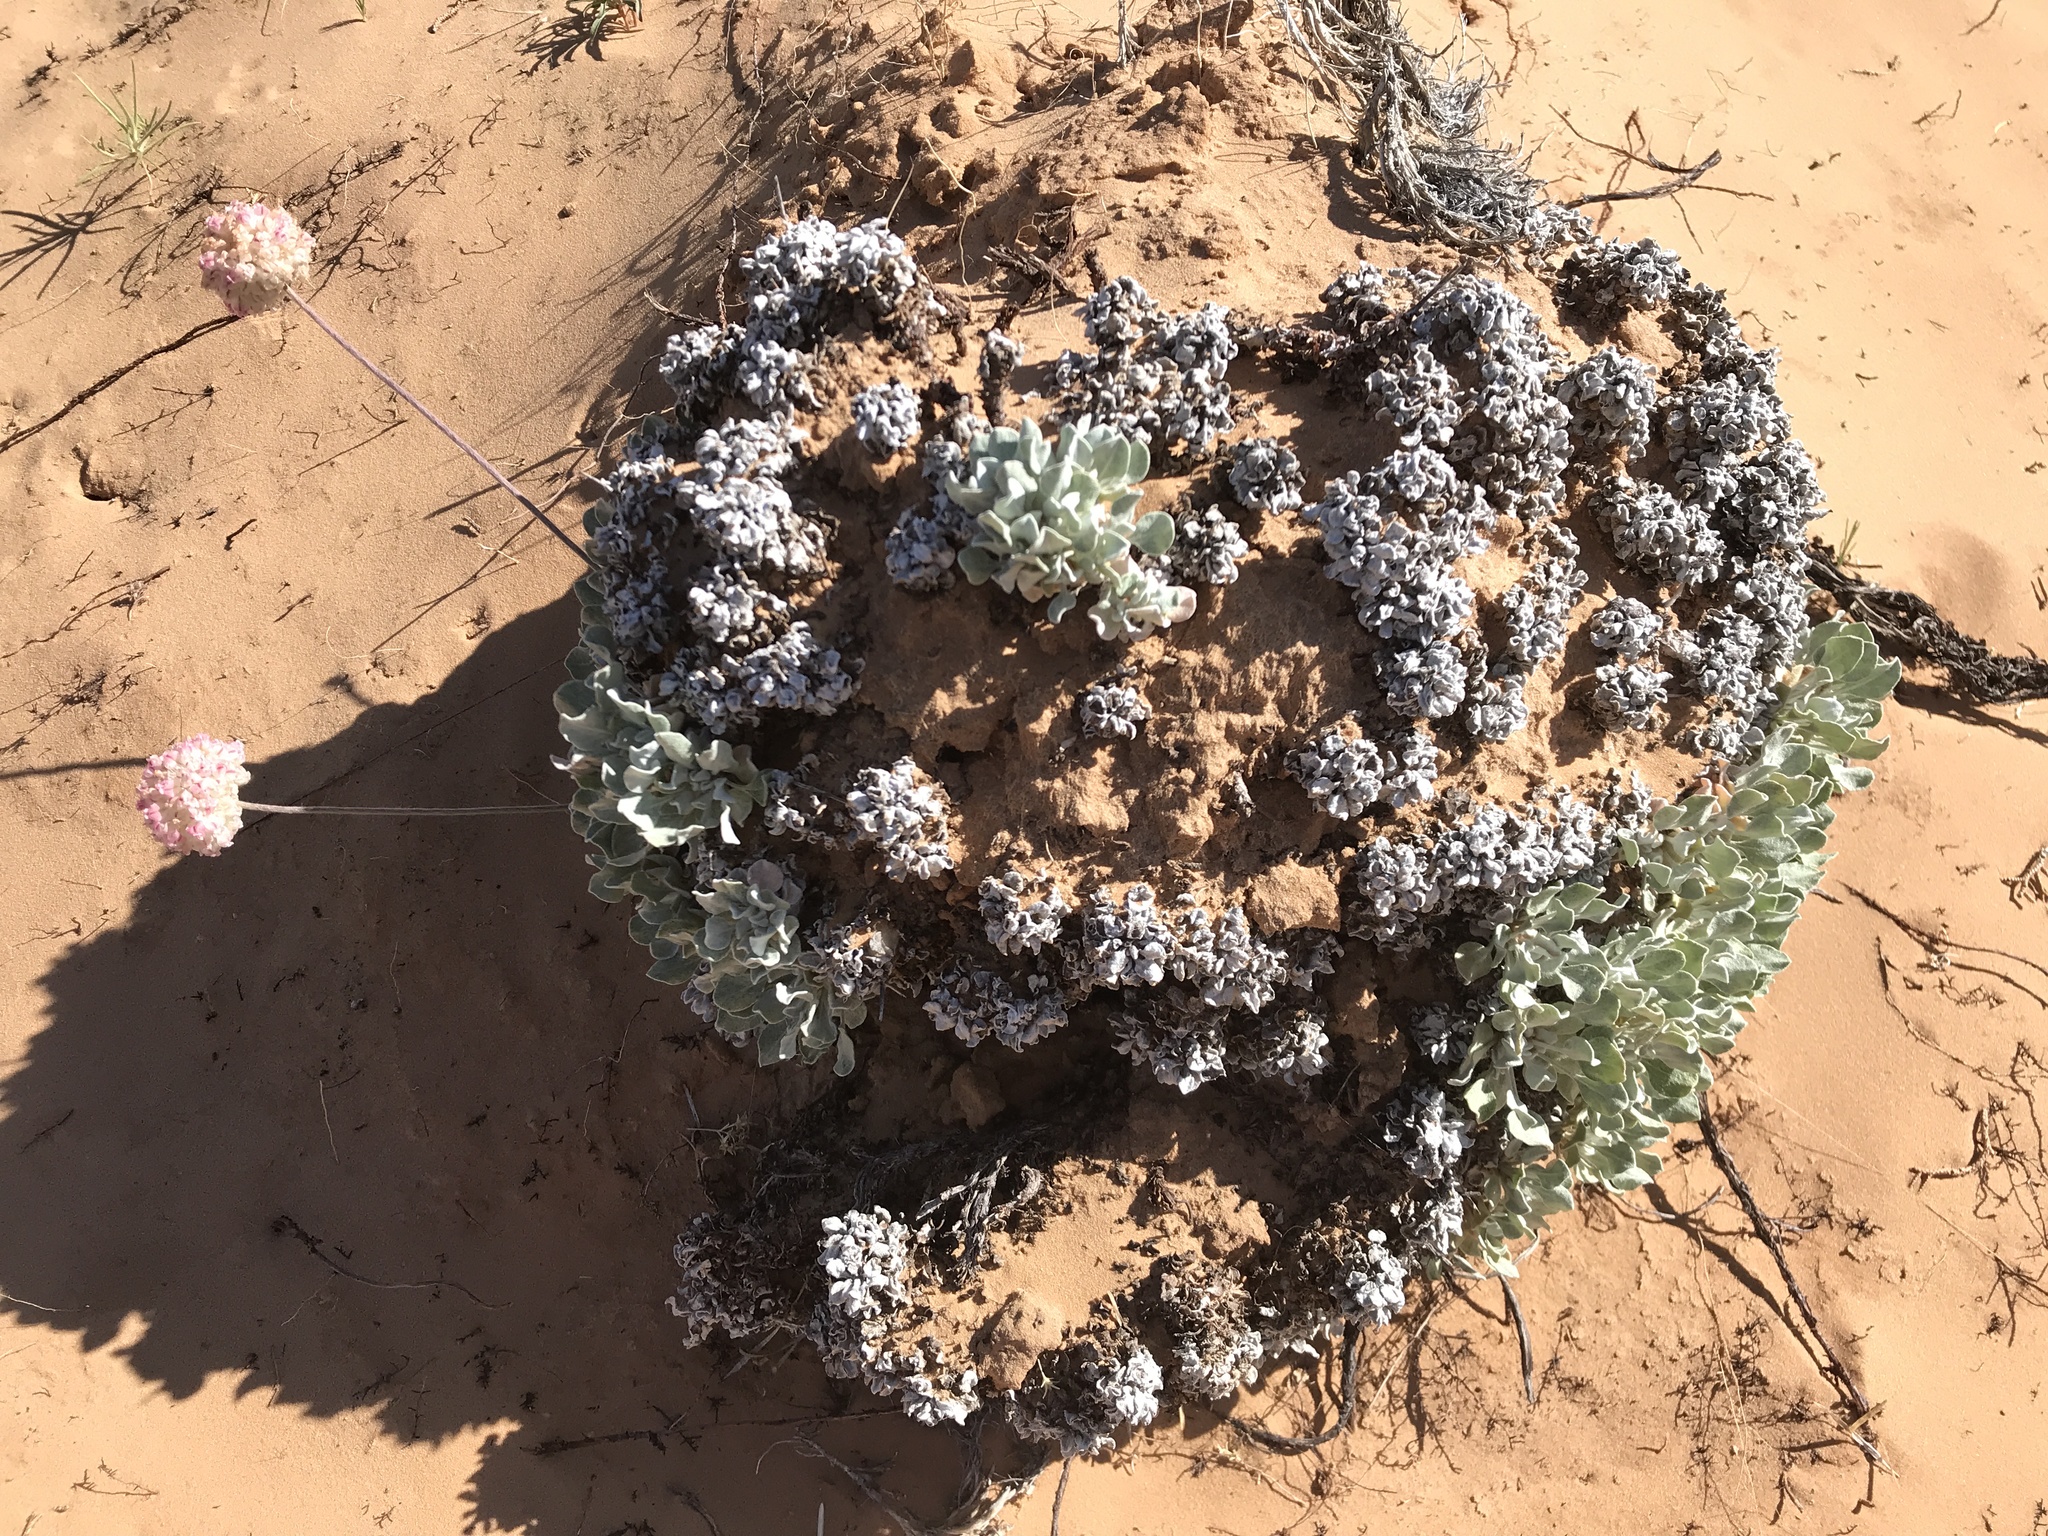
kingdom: Plantae
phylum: Tracheophyta
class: Magnoliopsida
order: Caryophyllales
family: Polygonaceae
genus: Eriogonum
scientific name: Eriogonum ovalifolium
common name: Cushion buckwheat
